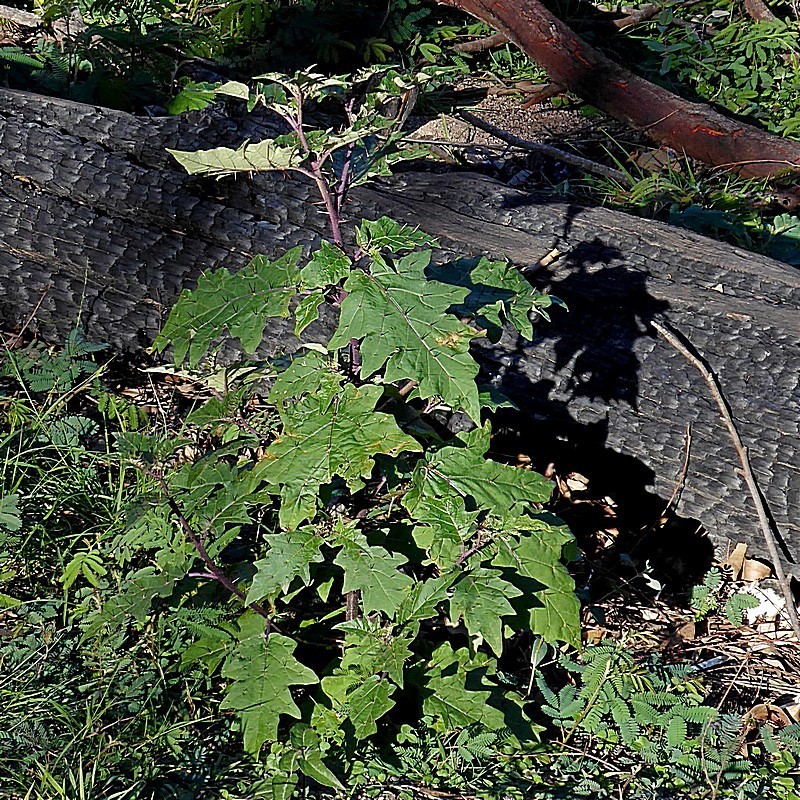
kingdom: Plantae
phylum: Tracheophyta
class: Magnoliopsida
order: Solanales
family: Solanaceae
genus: Solanum
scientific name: Solanum silvestre
